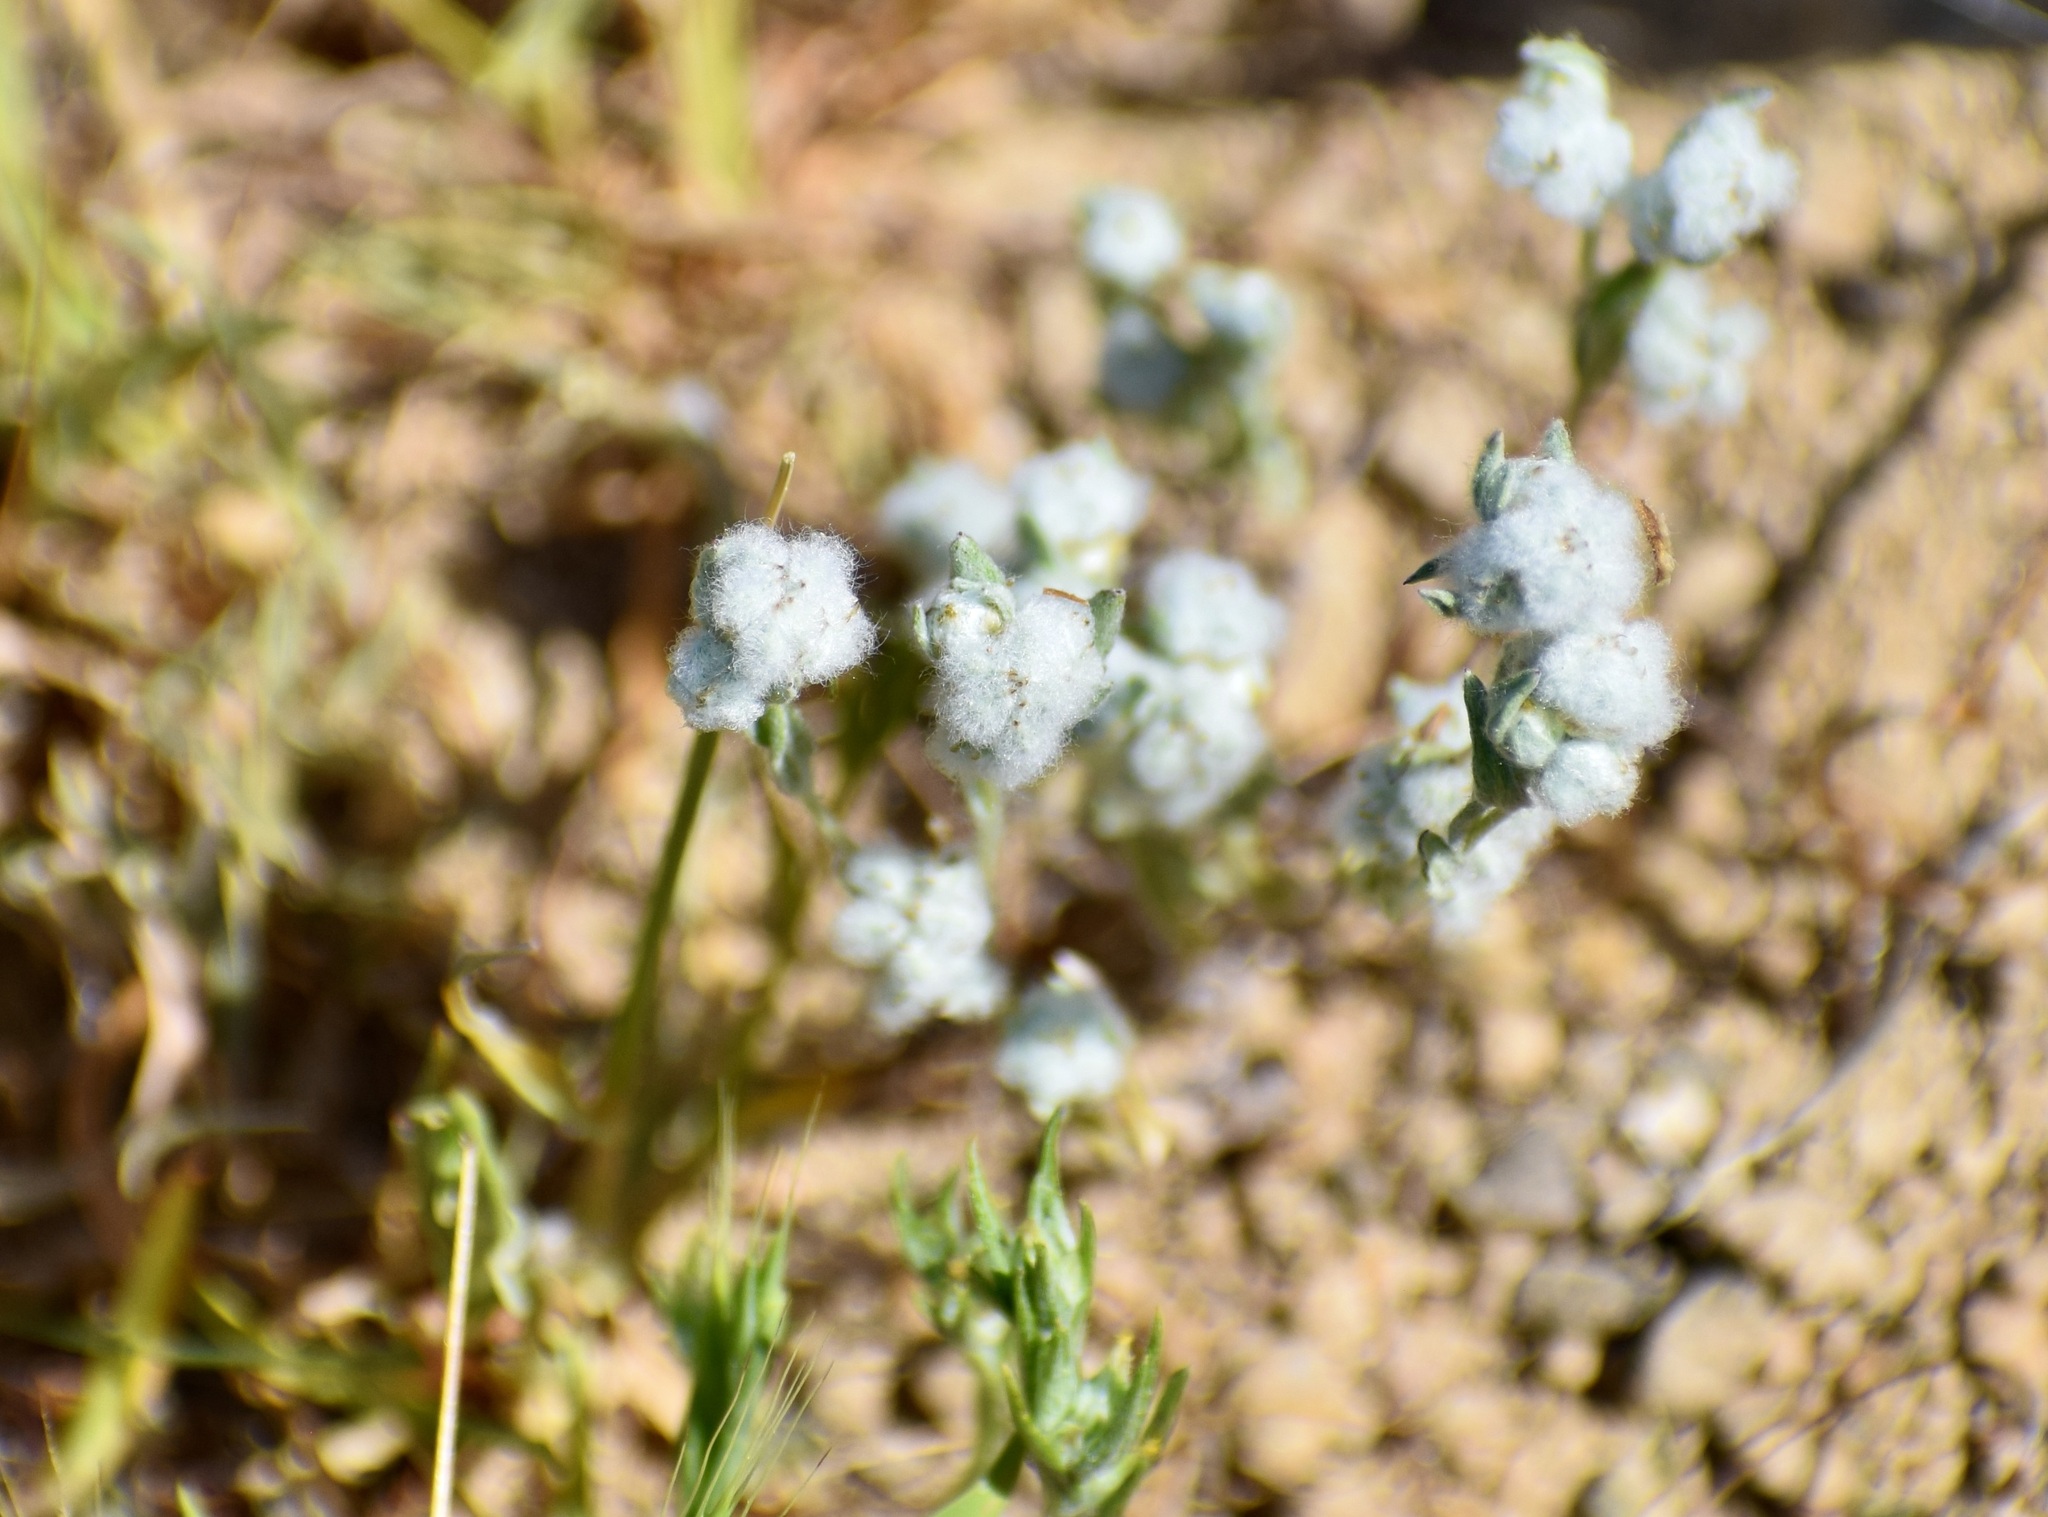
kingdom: Plantae
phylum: Tracheophyta
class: Magnoliopsida
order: Asterales
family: Asteraceae
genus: Bombycilaena
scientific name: Bombycilaena californica
